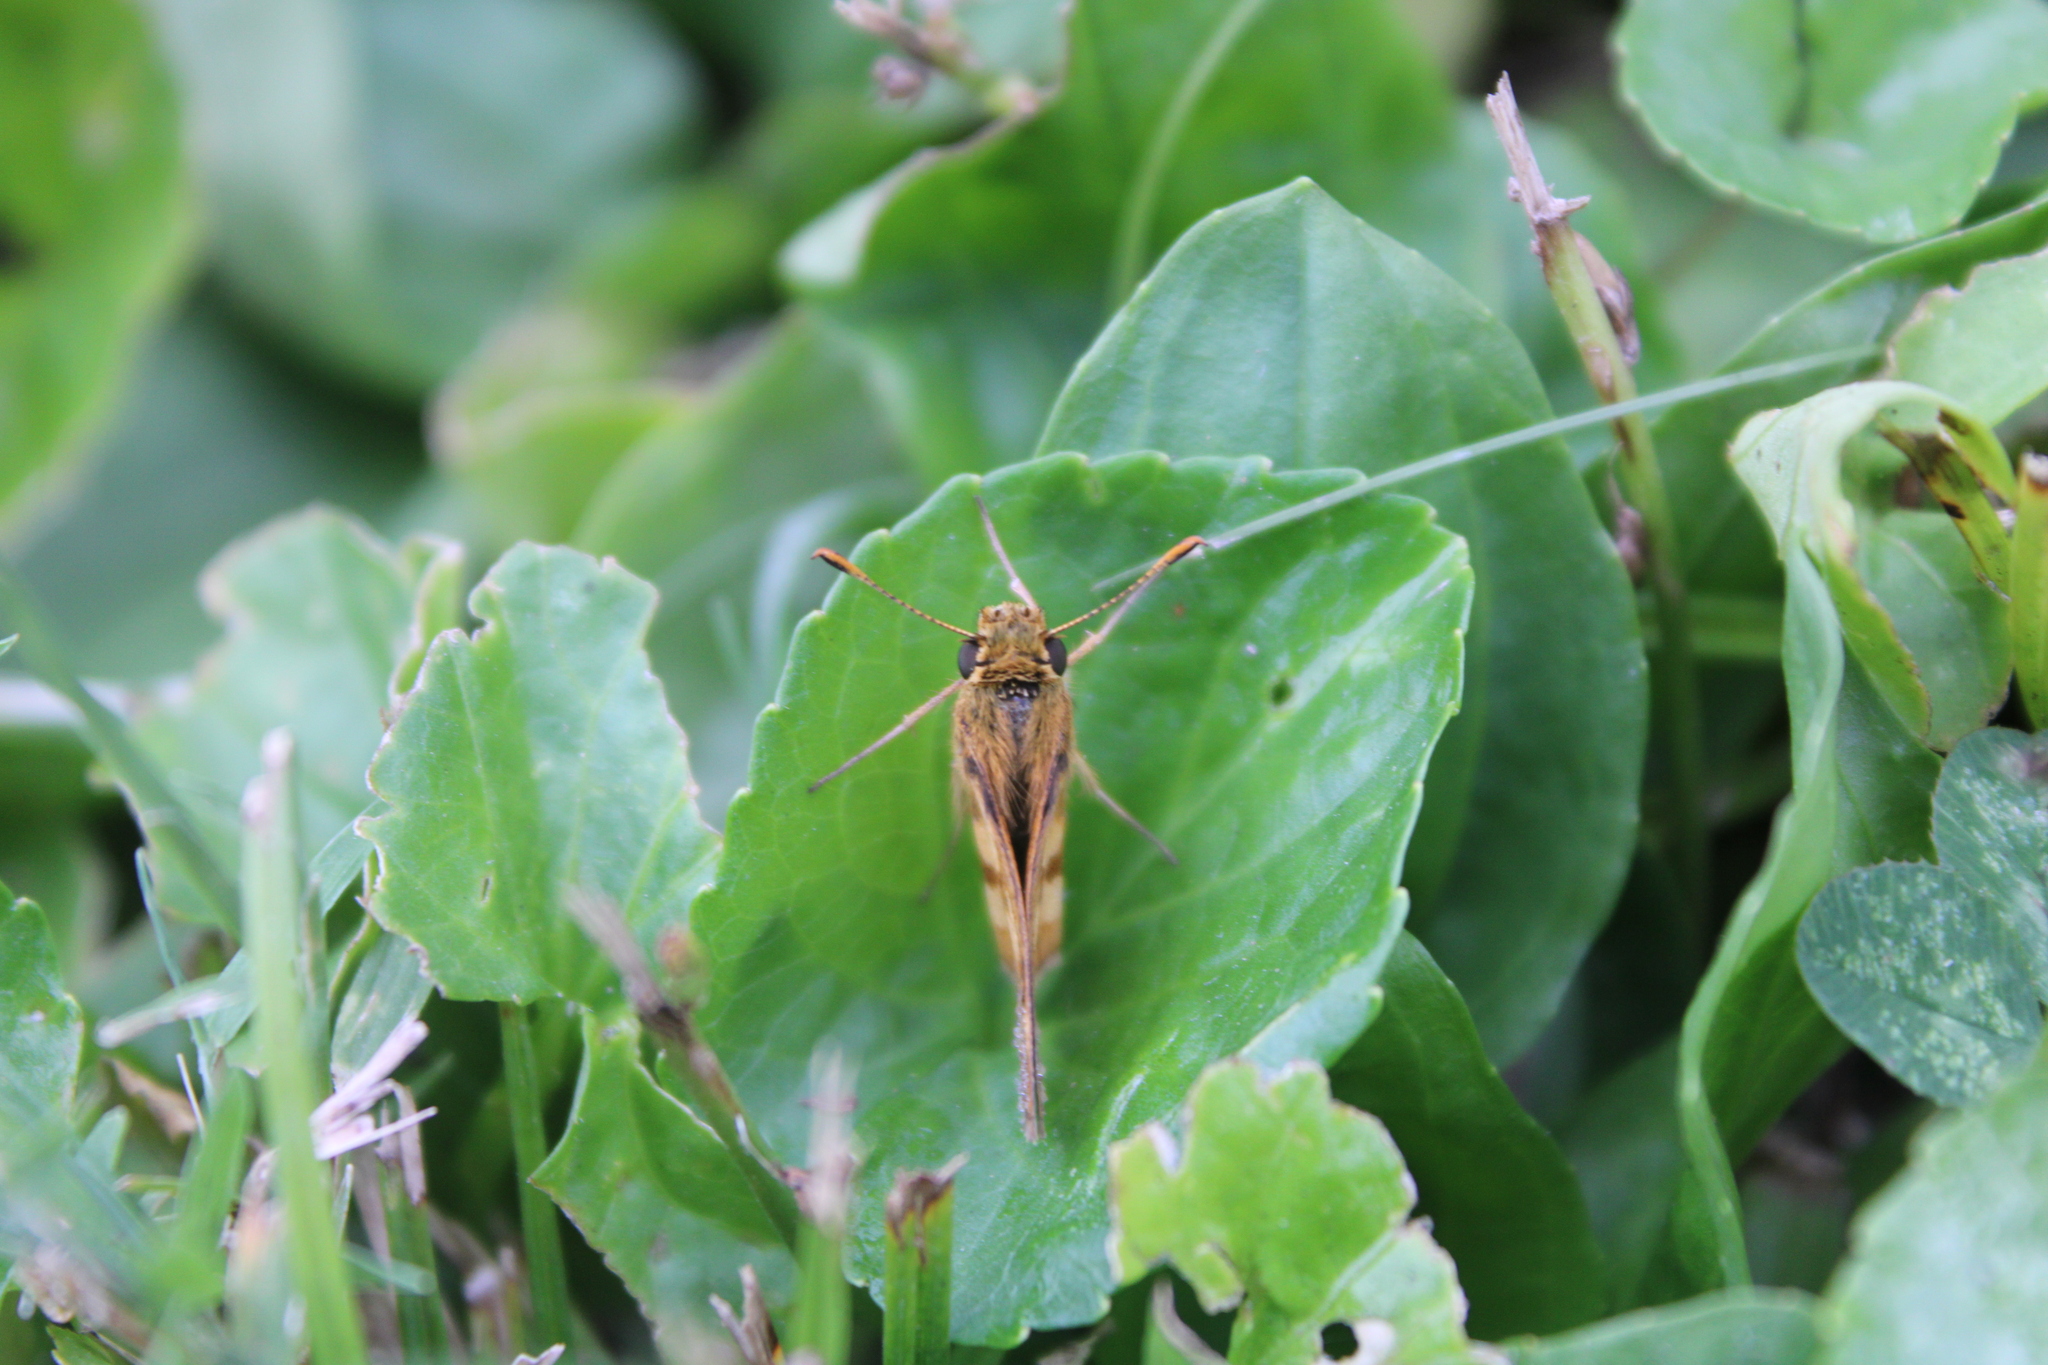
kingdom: Animalia
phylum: Arthropoda
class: Insecta
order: Lepidoptera
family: Hesperiidae
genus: Polites
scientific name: Polites coras
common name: Peck's skipper
